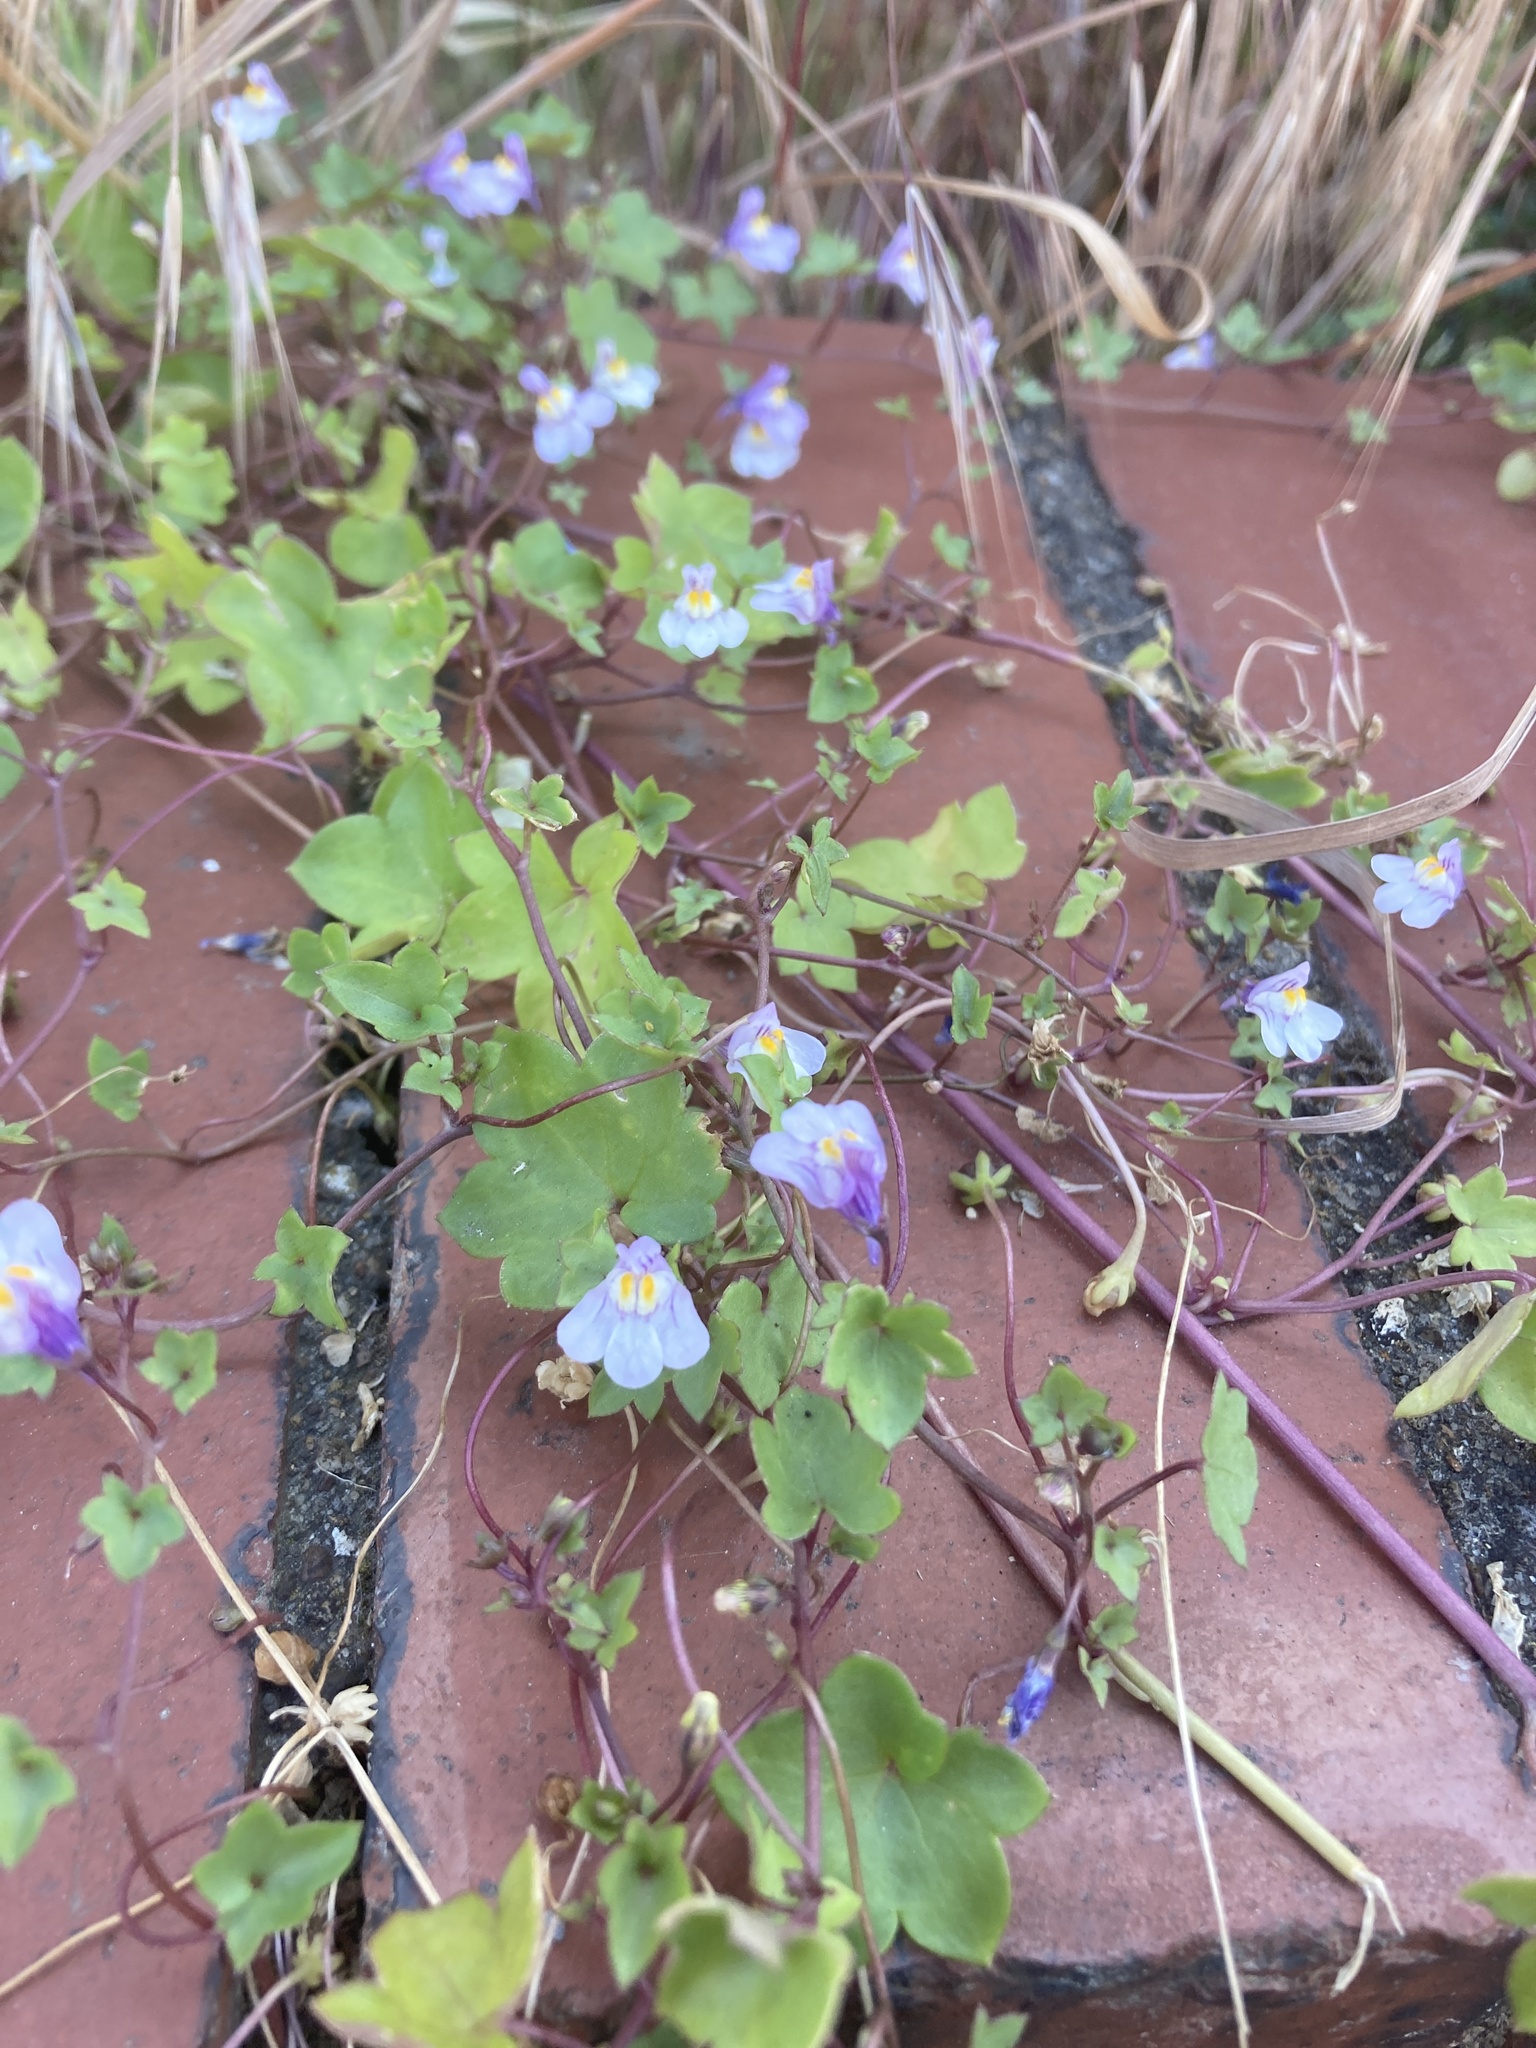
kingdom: Plantae
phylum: Tracheophyta
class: Magnoliopsida
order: Lamiales
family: Plantaginaceae
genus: Cymbalaria
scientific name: Cymbalaria muralis
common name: Ivy-leaved toadflax
